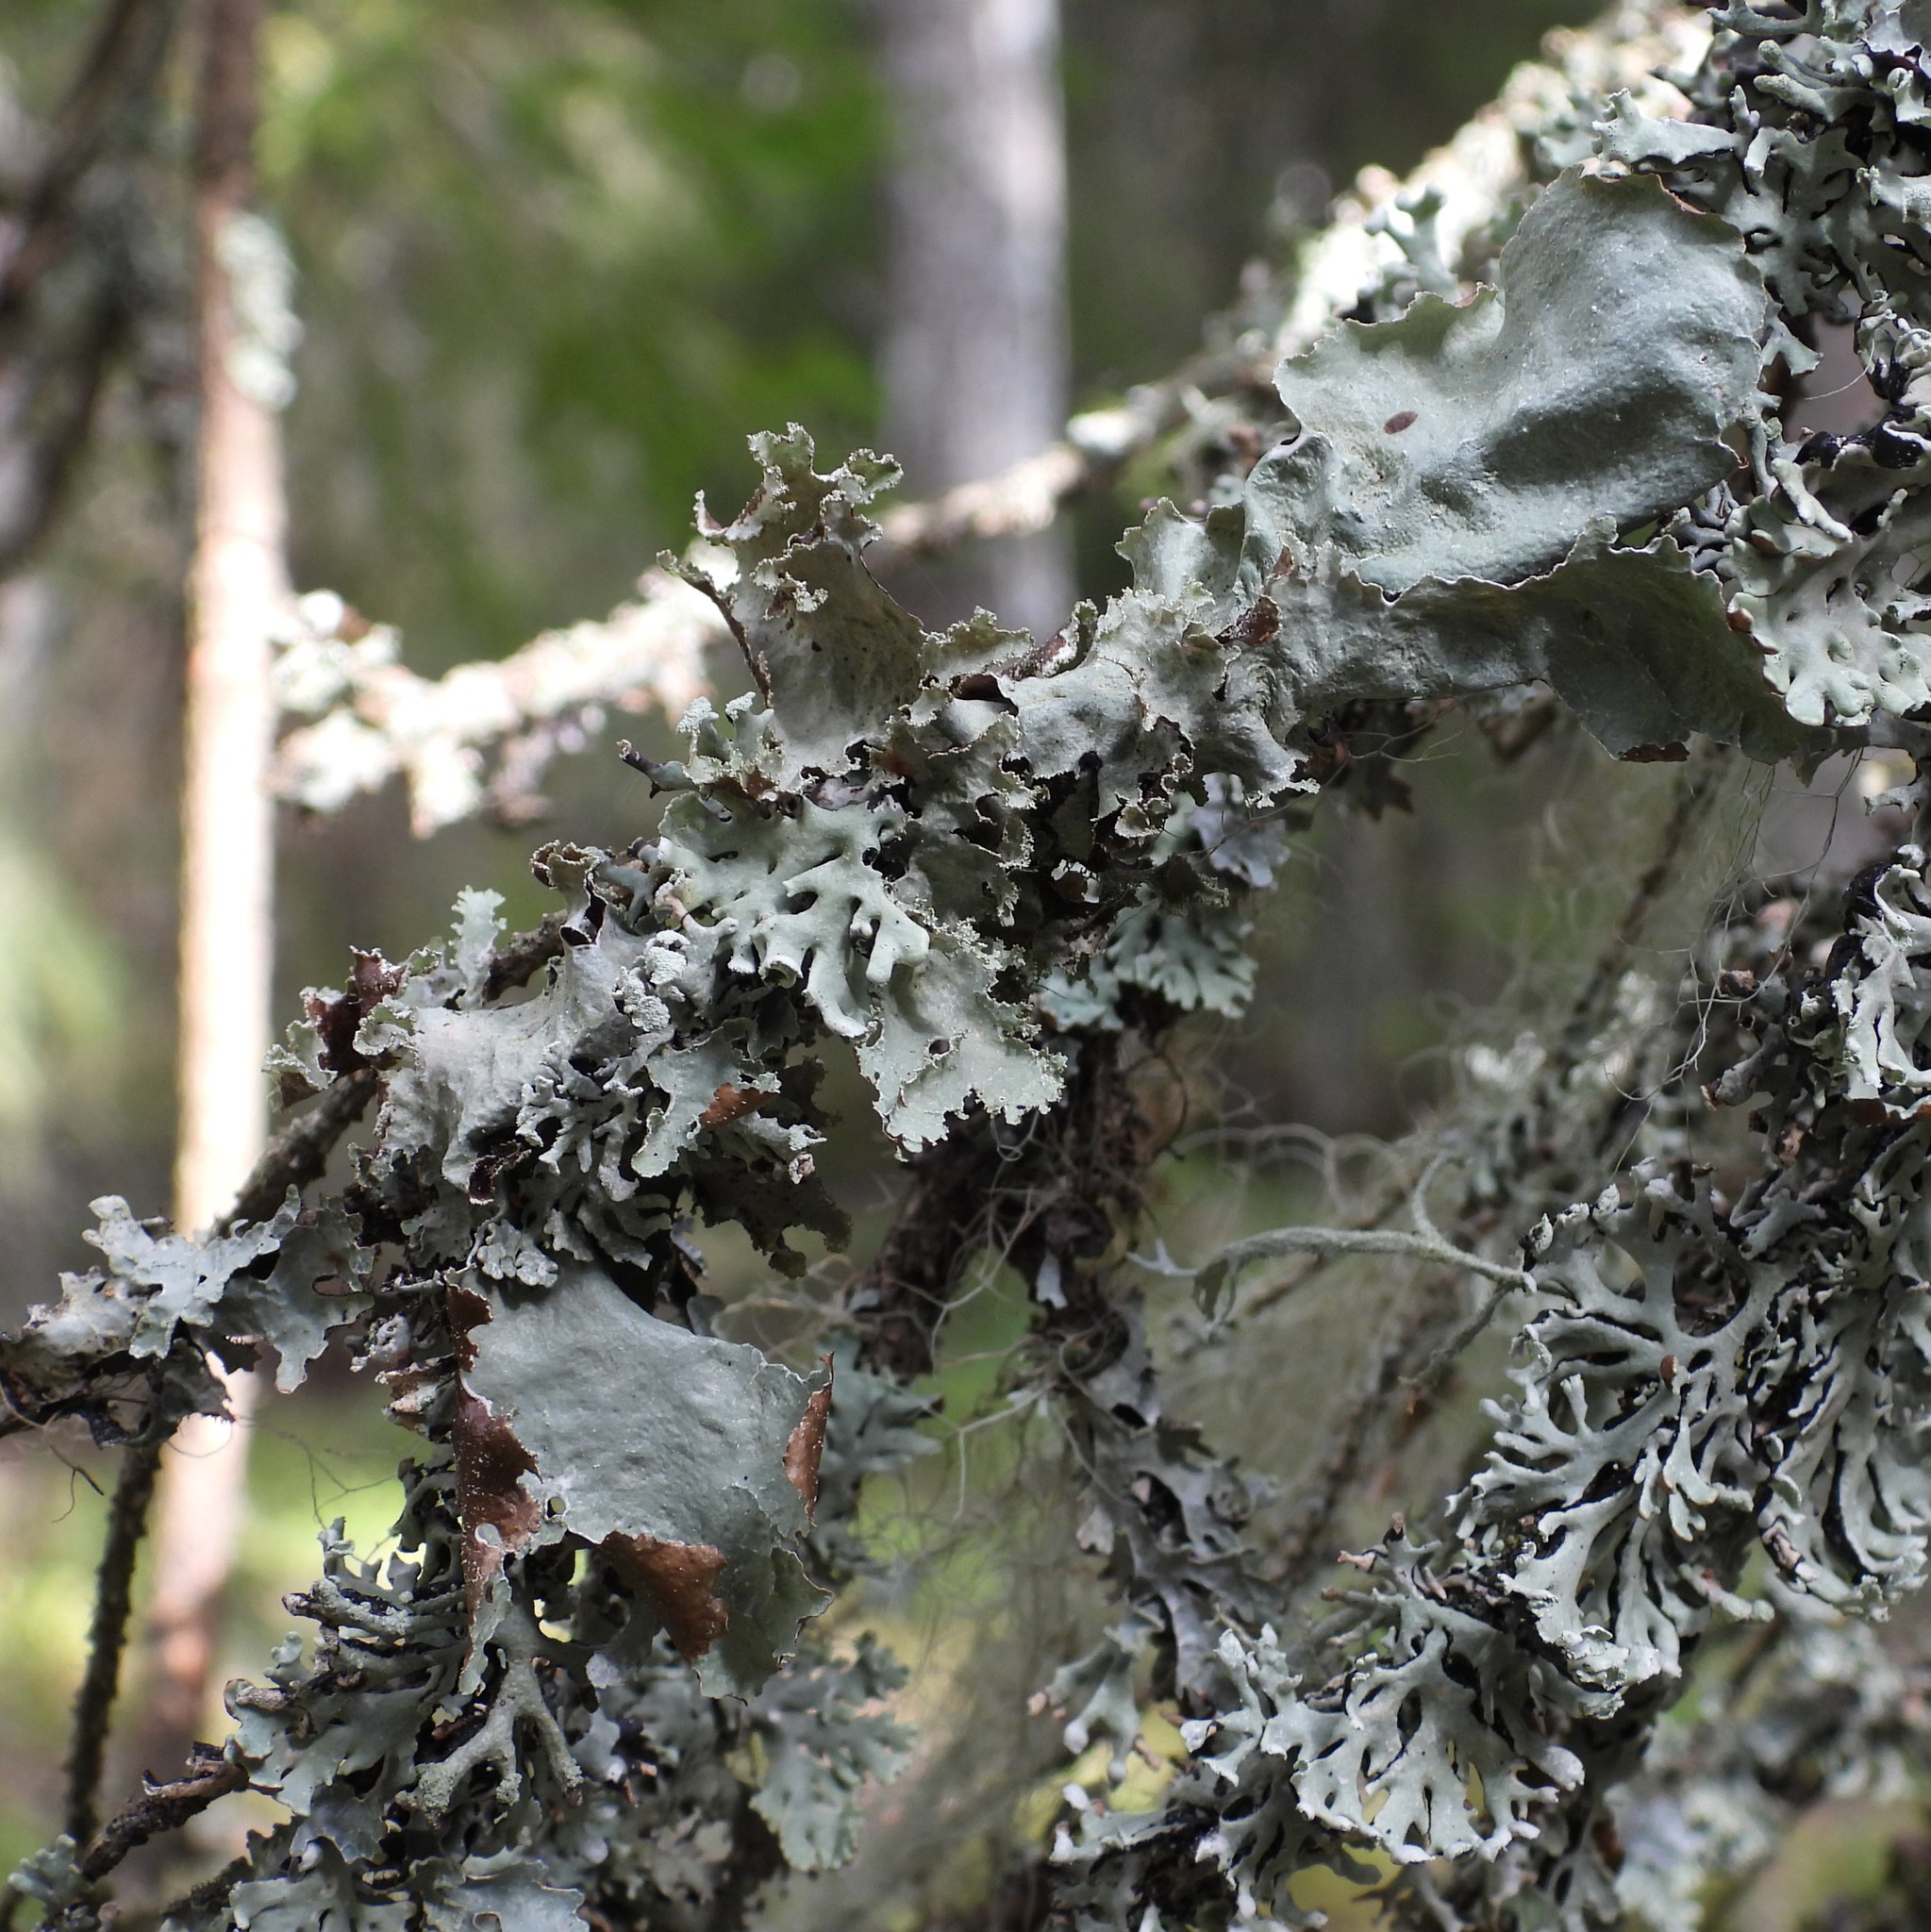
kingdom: Fungi
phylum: Ascomycota
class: Lecanoromycetes
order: Lecanorales
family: Parmeliaceae
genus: Platismatia
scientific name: Platismatia glauca
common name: Varied rag lichen
